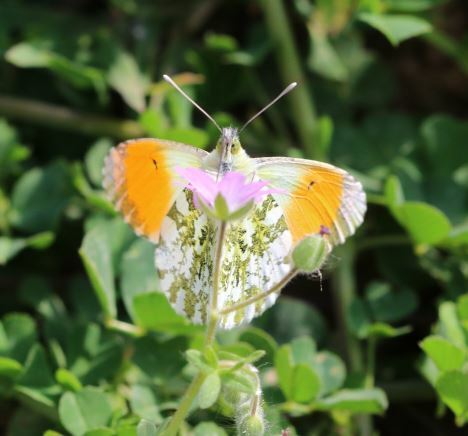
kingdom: Animalia
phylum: Arthropoda
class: Insecta
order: Lepidoptera
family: Pieridae
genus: Anthocharis
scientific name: Anthocharis cardamines
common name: Orange-tip
